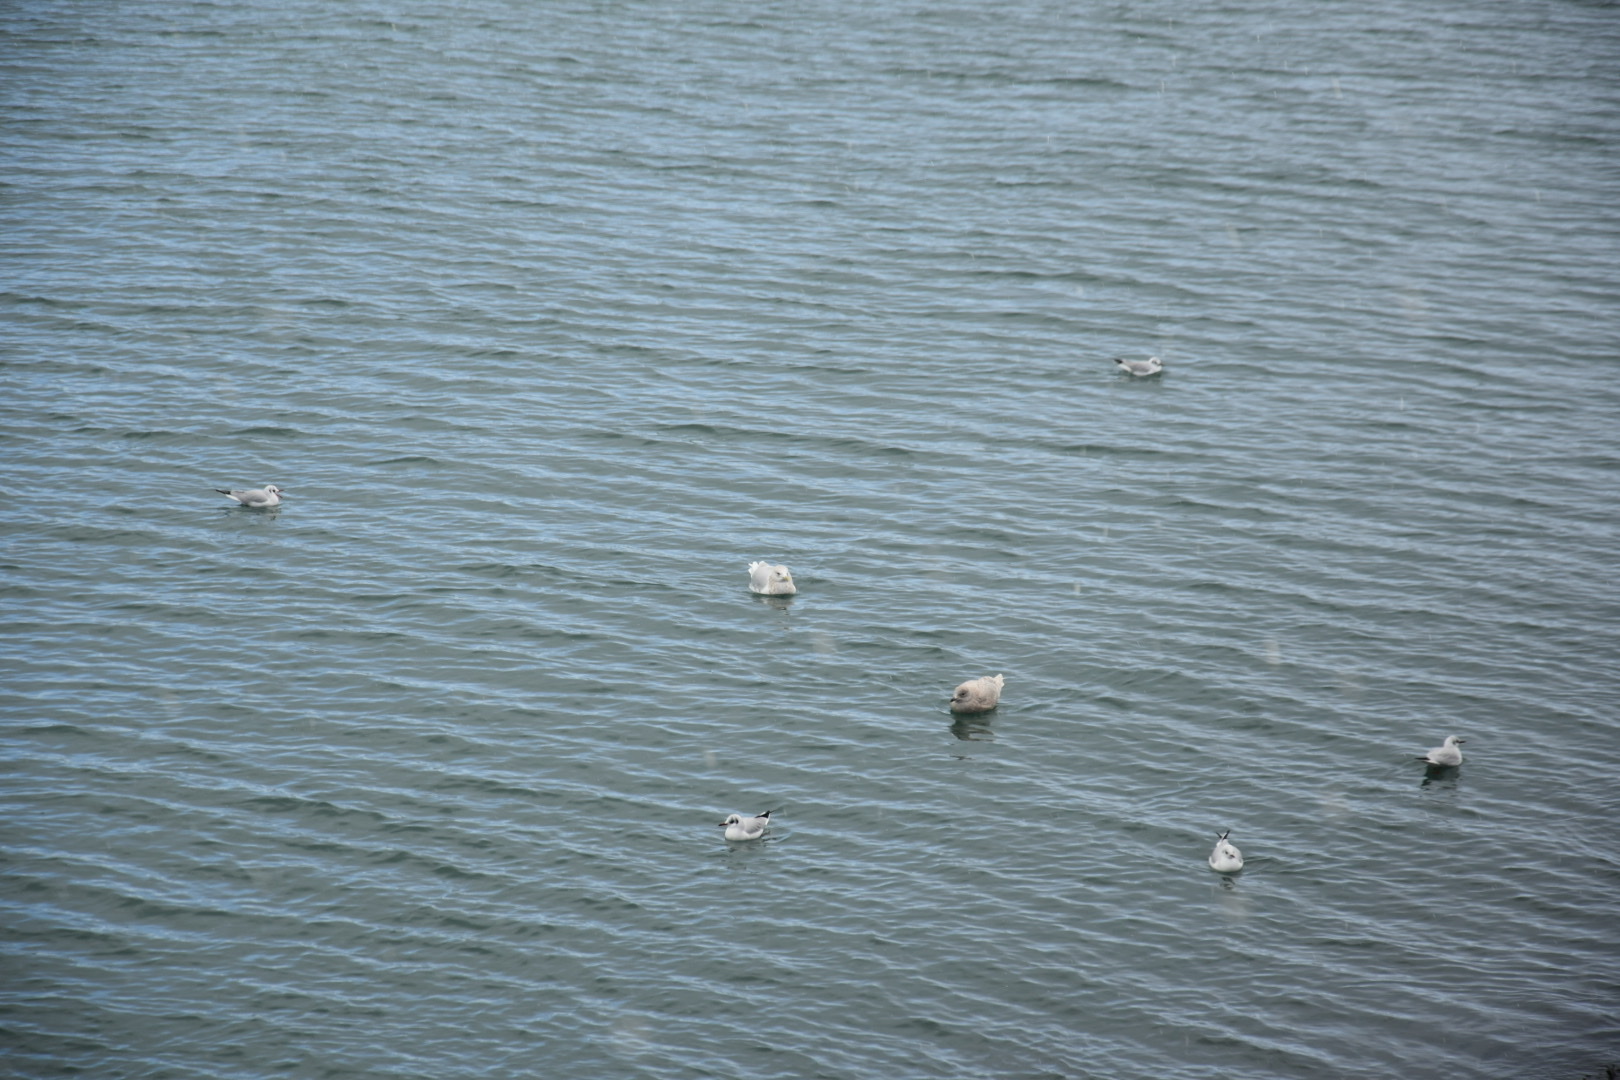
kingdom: Animalia
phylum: Chordata
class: Aves
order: Charadriiformes
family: Laridae
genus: Larus
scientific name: Larus glaucoides
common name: Iceland gull
